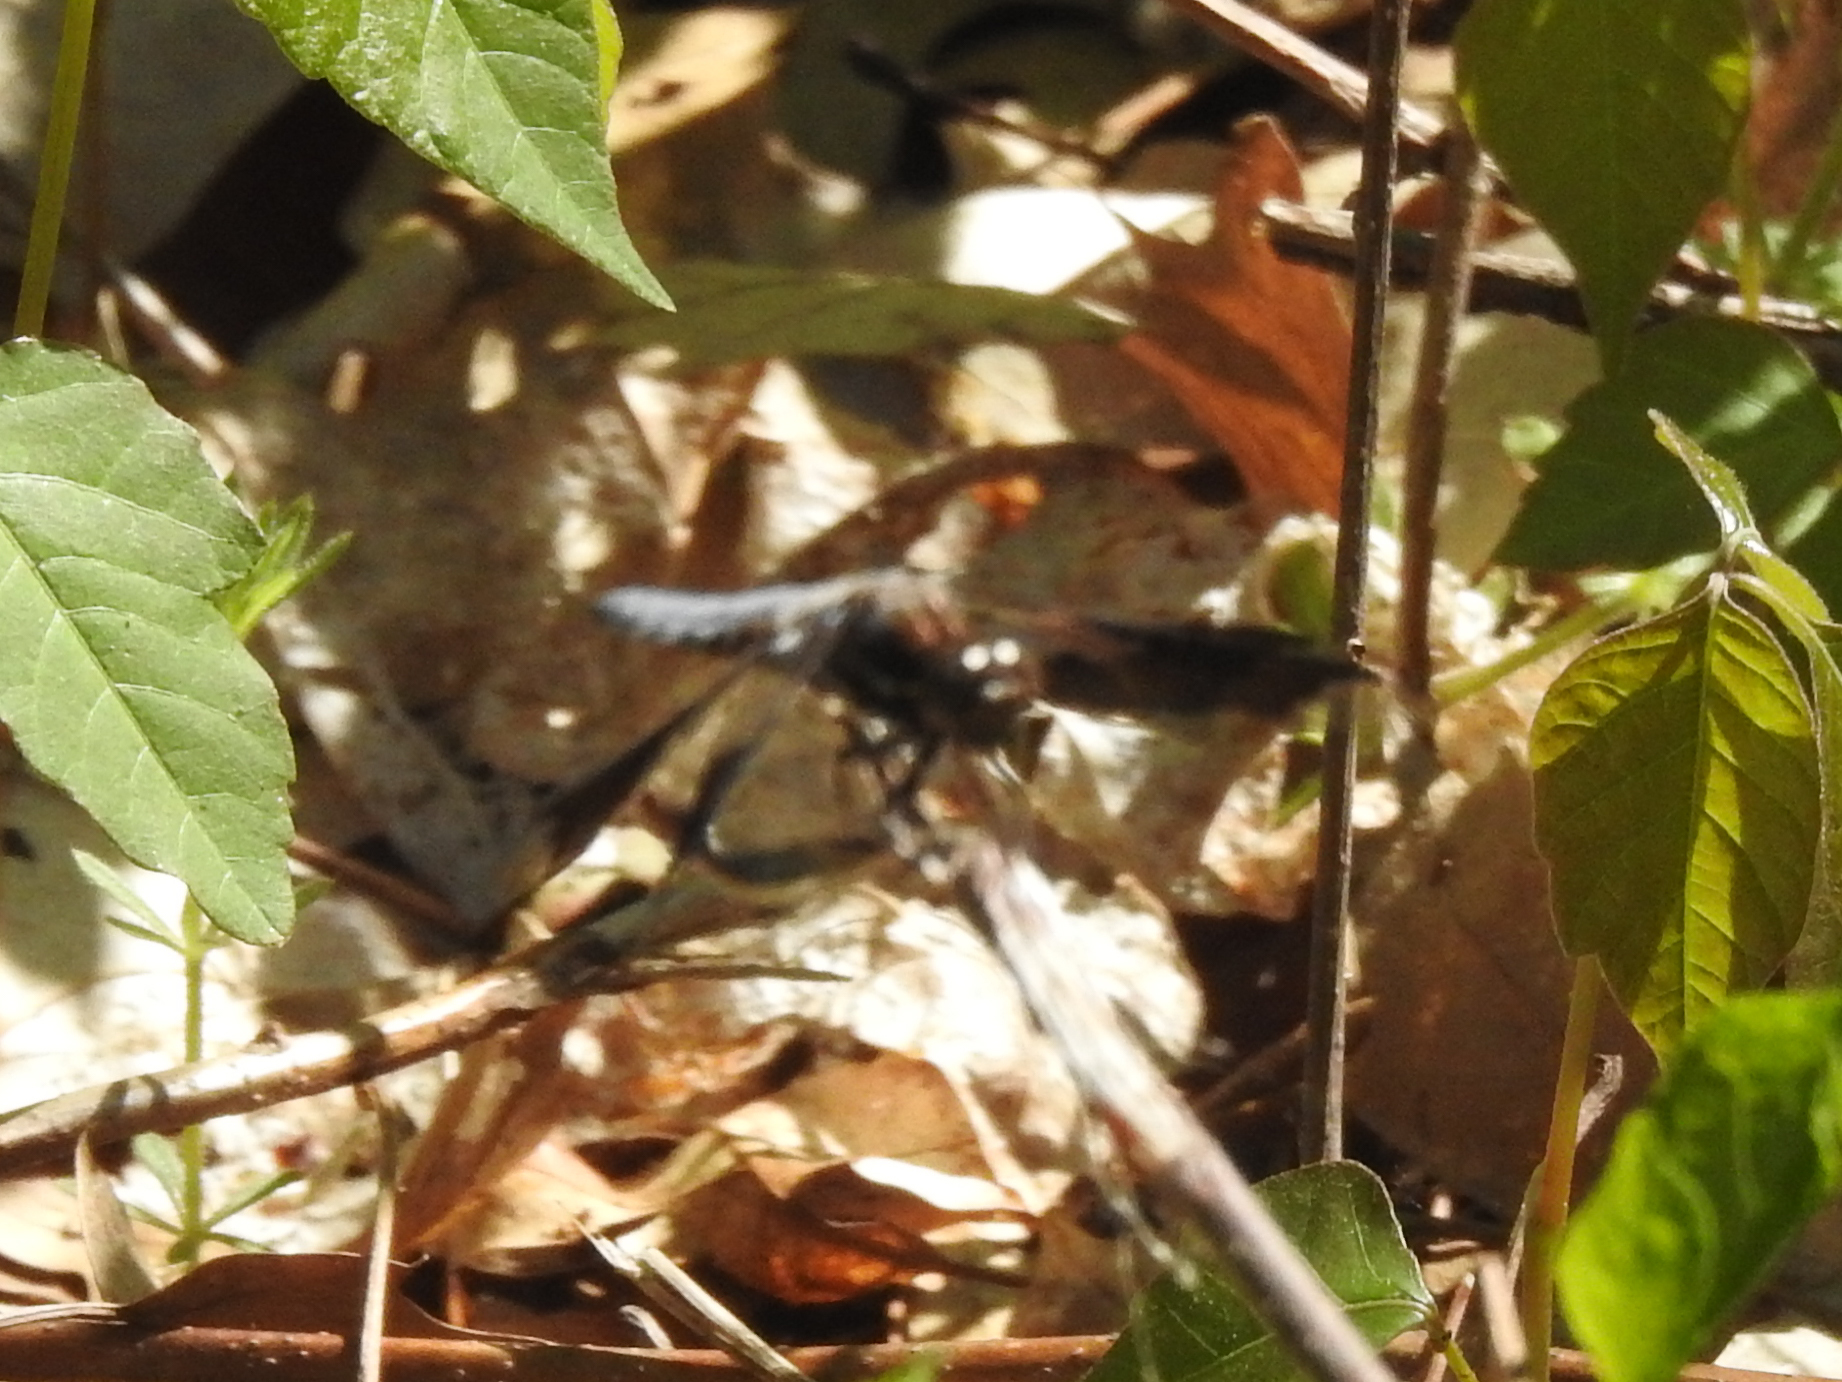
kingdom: Animalia
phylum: Arthropoda
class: Insecta
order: Odonata
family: Libellulidae
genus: Plathemis
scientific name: Plathemis lydia
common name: Common whitetail
